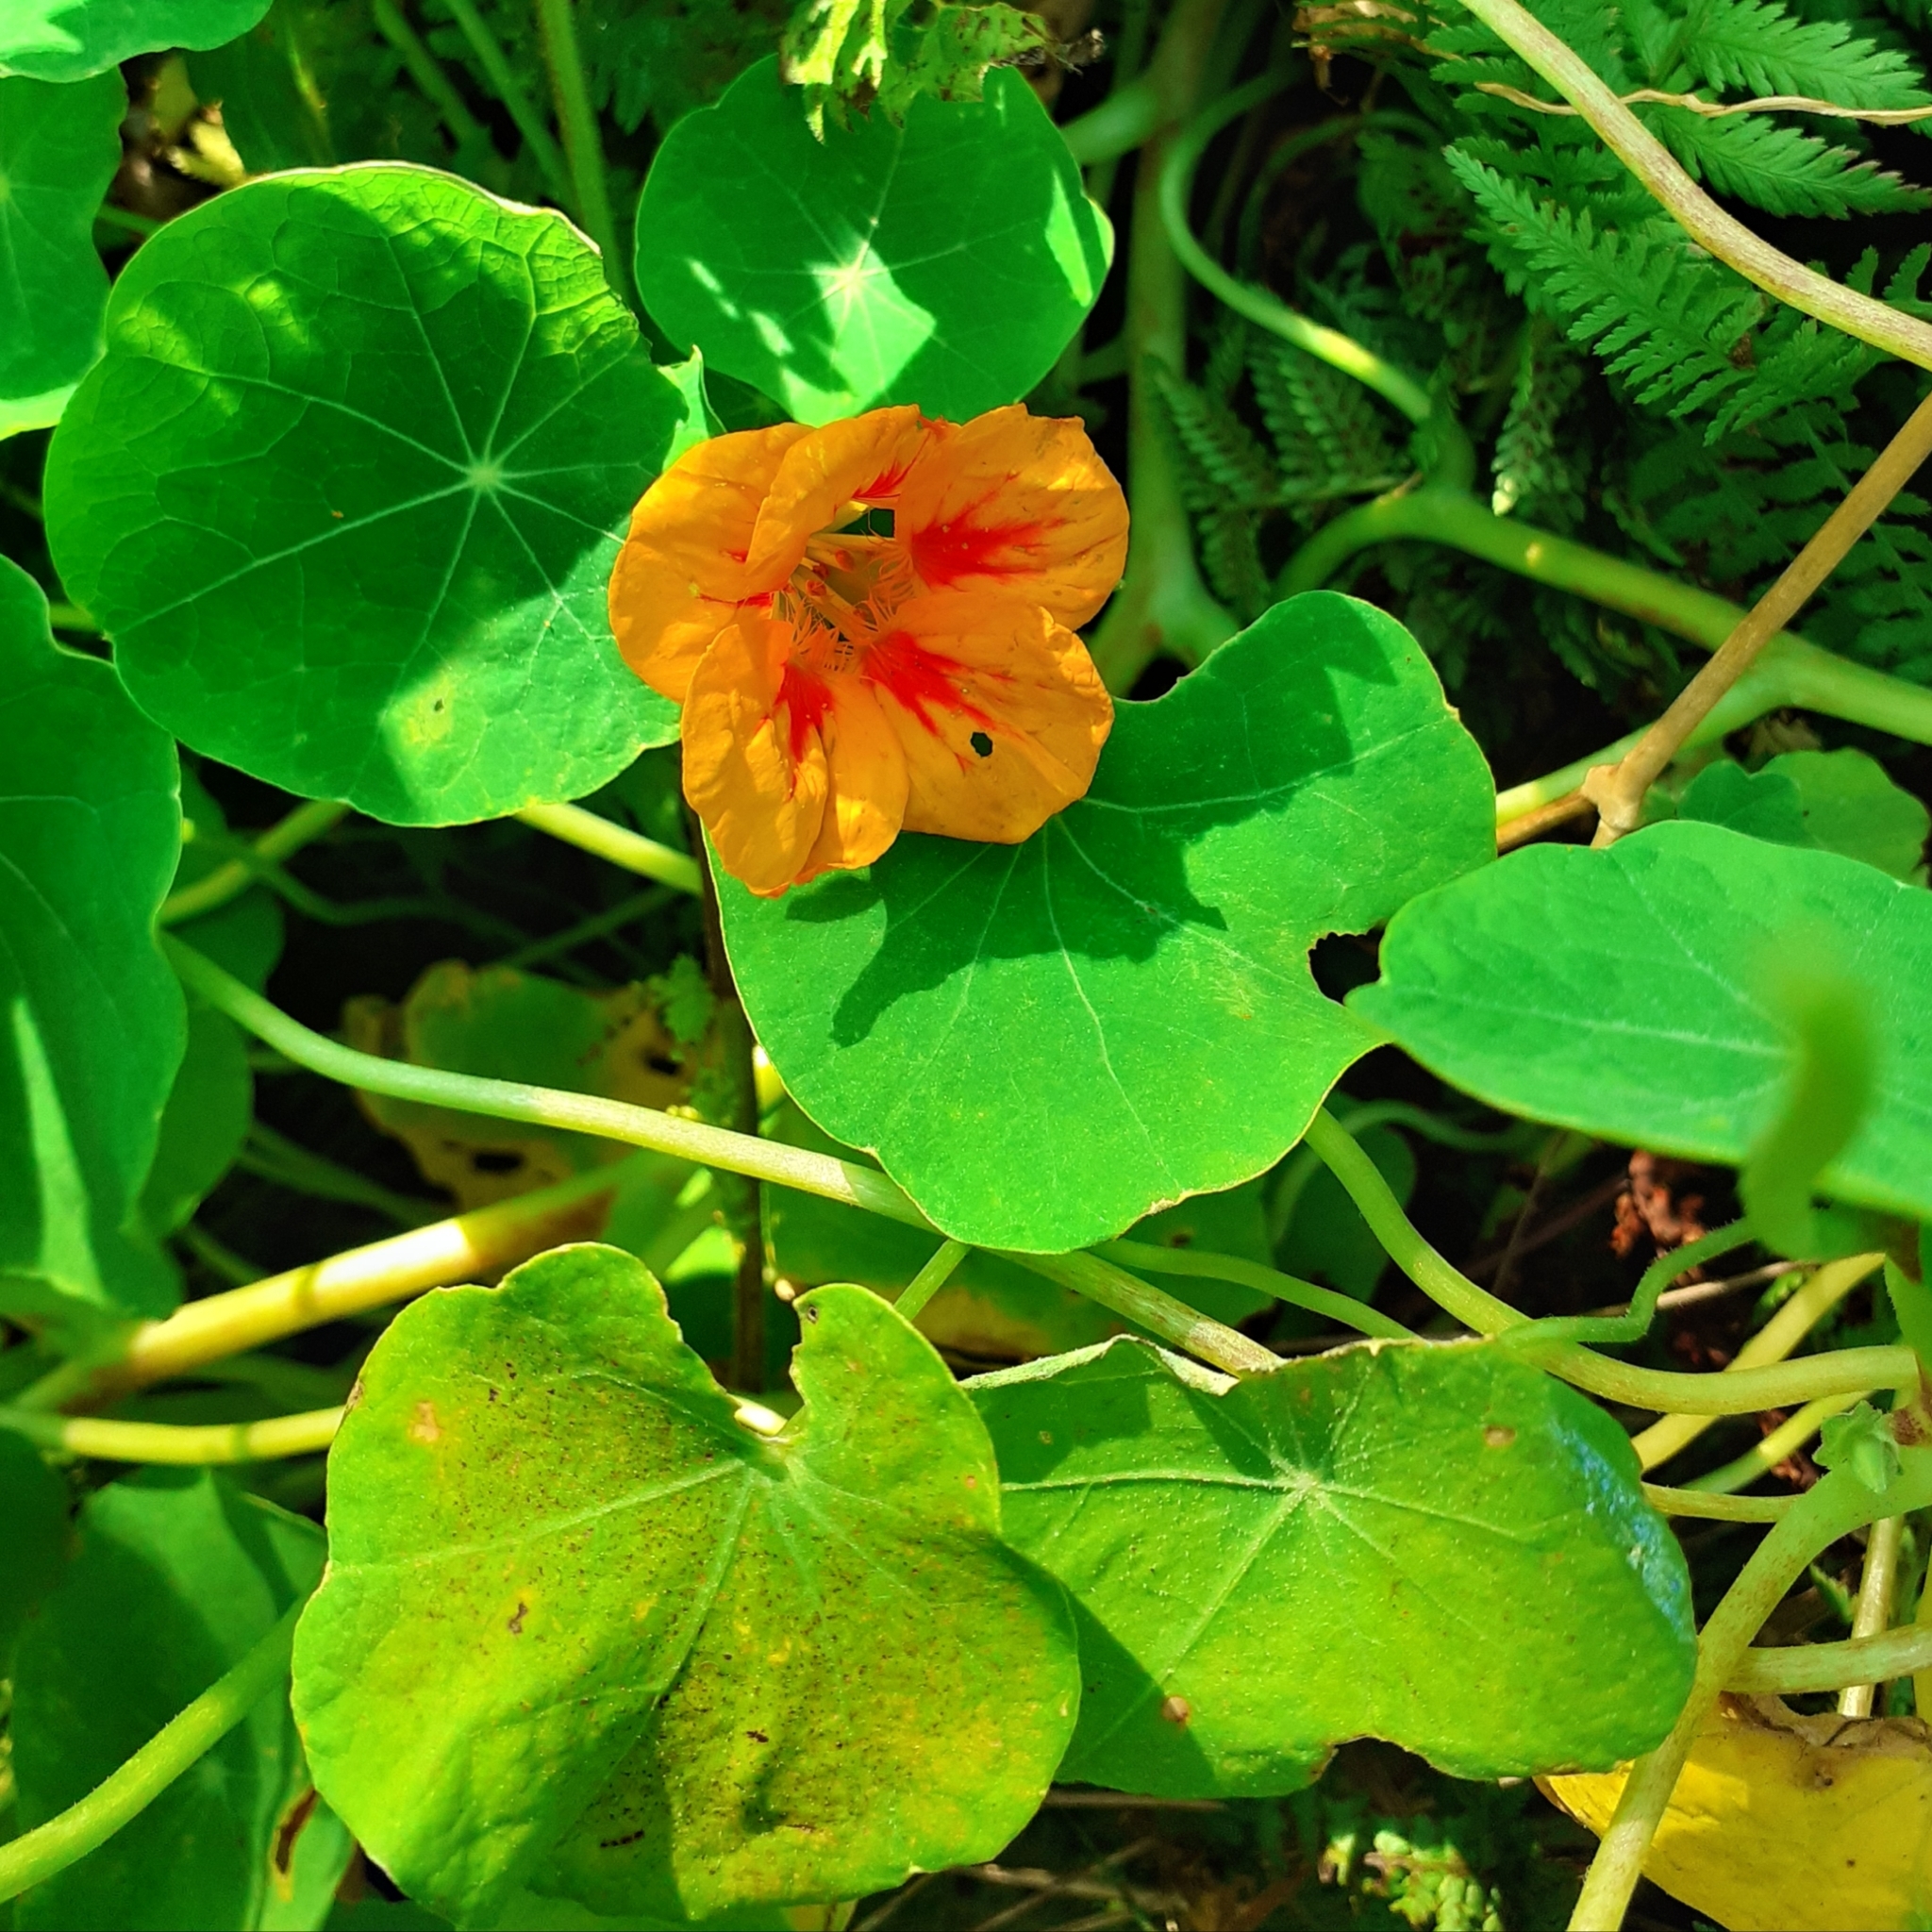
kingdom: Plantae
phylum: Tracheophyta
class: Magnoliopsida
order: Brassicales
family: Tropaeolaceae
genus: Tropaeolum
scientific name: Tropaeolum majus
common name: Nasturtium
